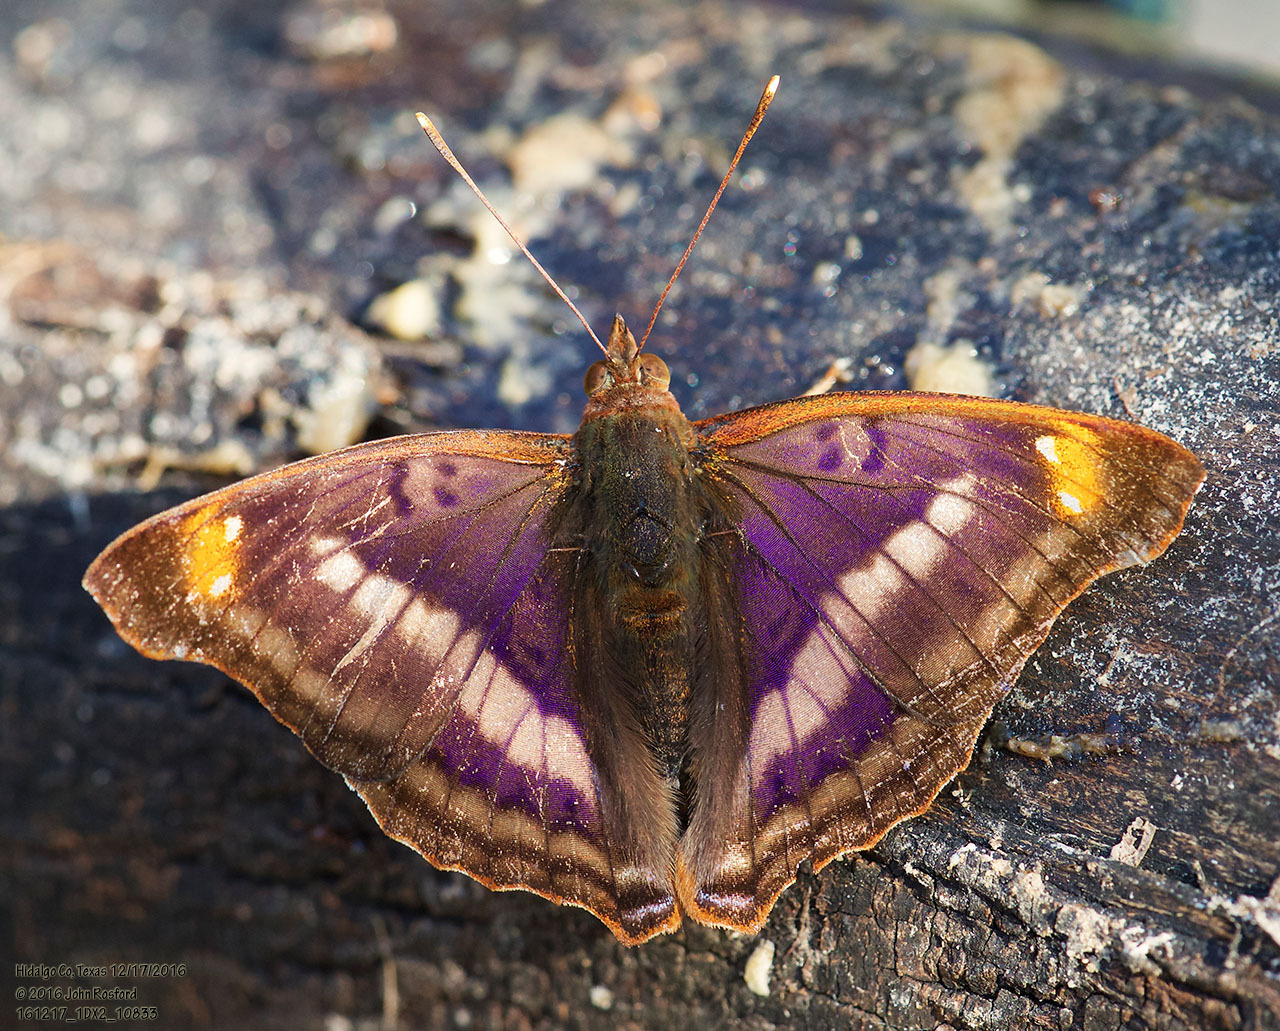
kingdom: Animalia
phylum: Arthropoda
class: Insecta
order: Lepidoptera
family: Nymphalidae
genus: Doxocopa
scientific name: Doxocopa pavon
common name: Pavon emperor
